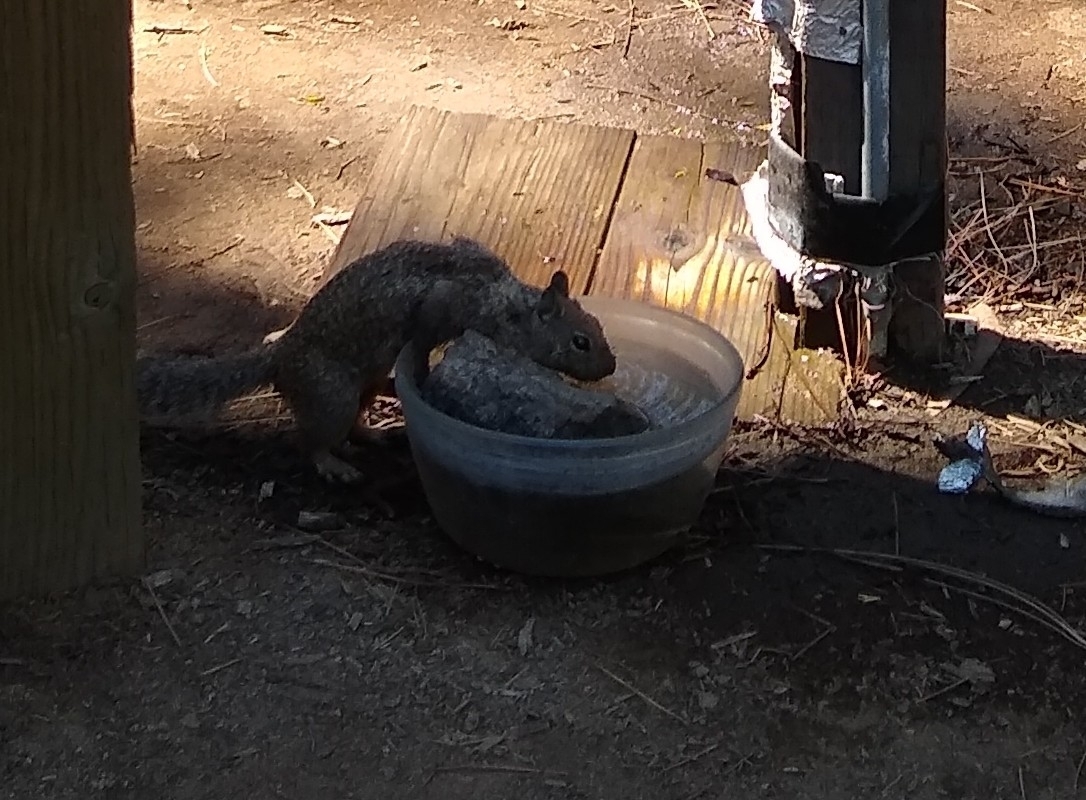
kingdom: Animalia
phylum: Chordata
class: Mammalia
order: Rodentia
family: Sciuridae
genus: Otospermophilus
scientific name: Otospermophilus beecheyi
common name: California ground squirrel
